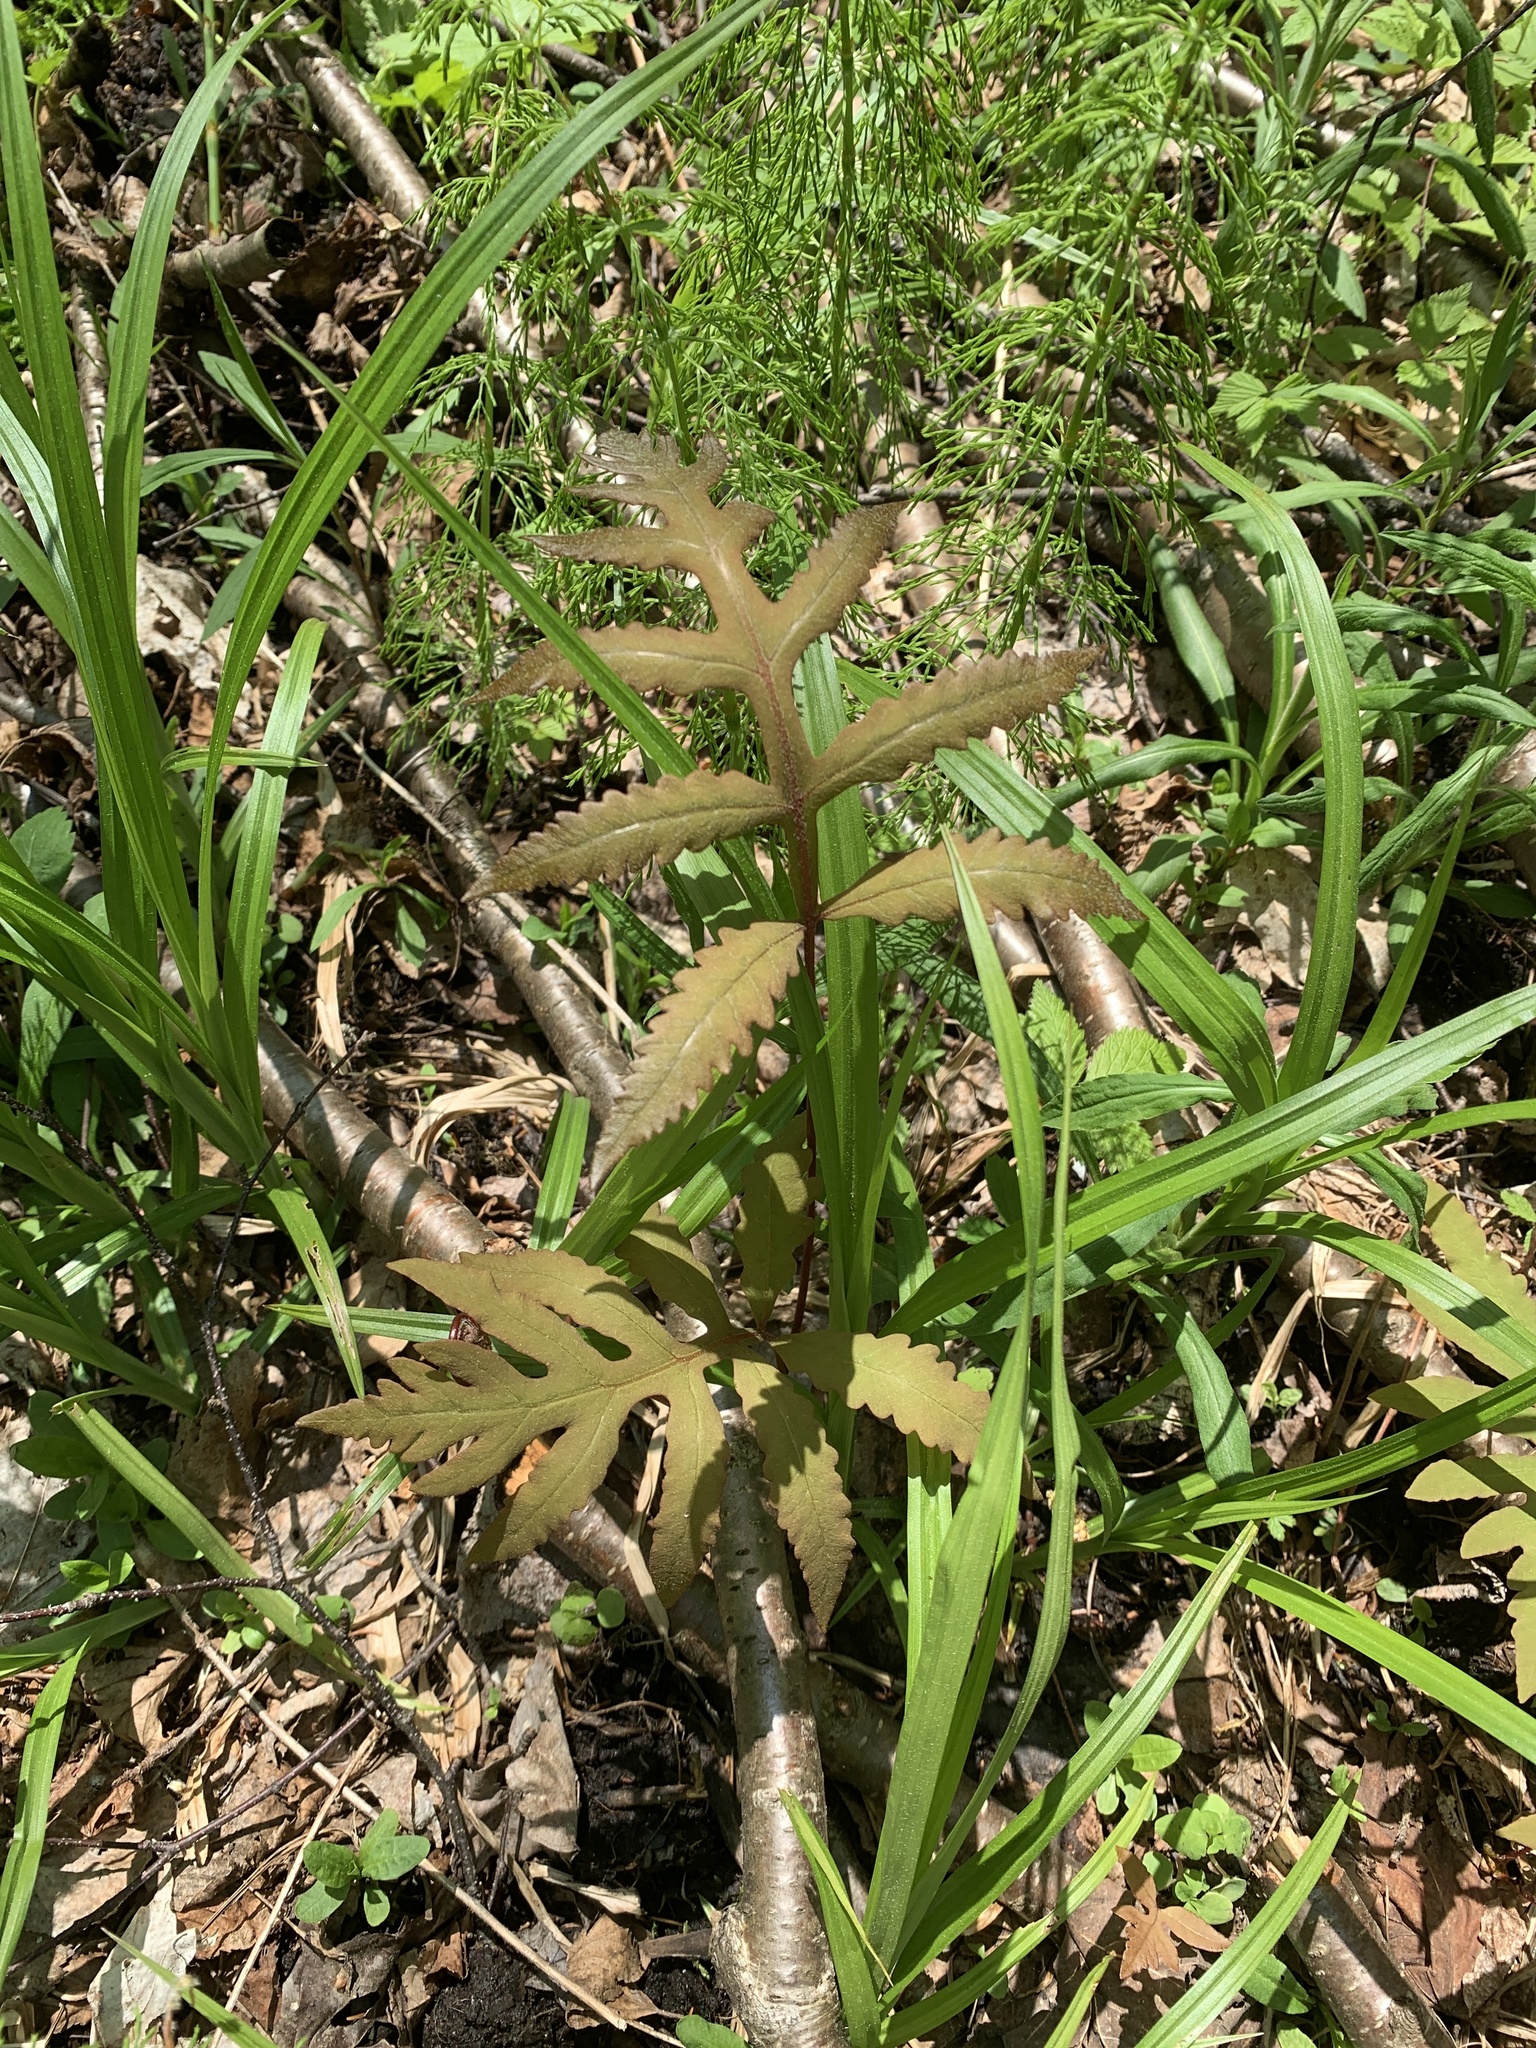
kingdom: Plantae
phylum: Tracheophyta
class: Polypodiopsida
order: Polypodiales
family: Onocleaceae
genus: Onoclea
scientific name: Onoclea sensibilis
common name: Sensitive fern
